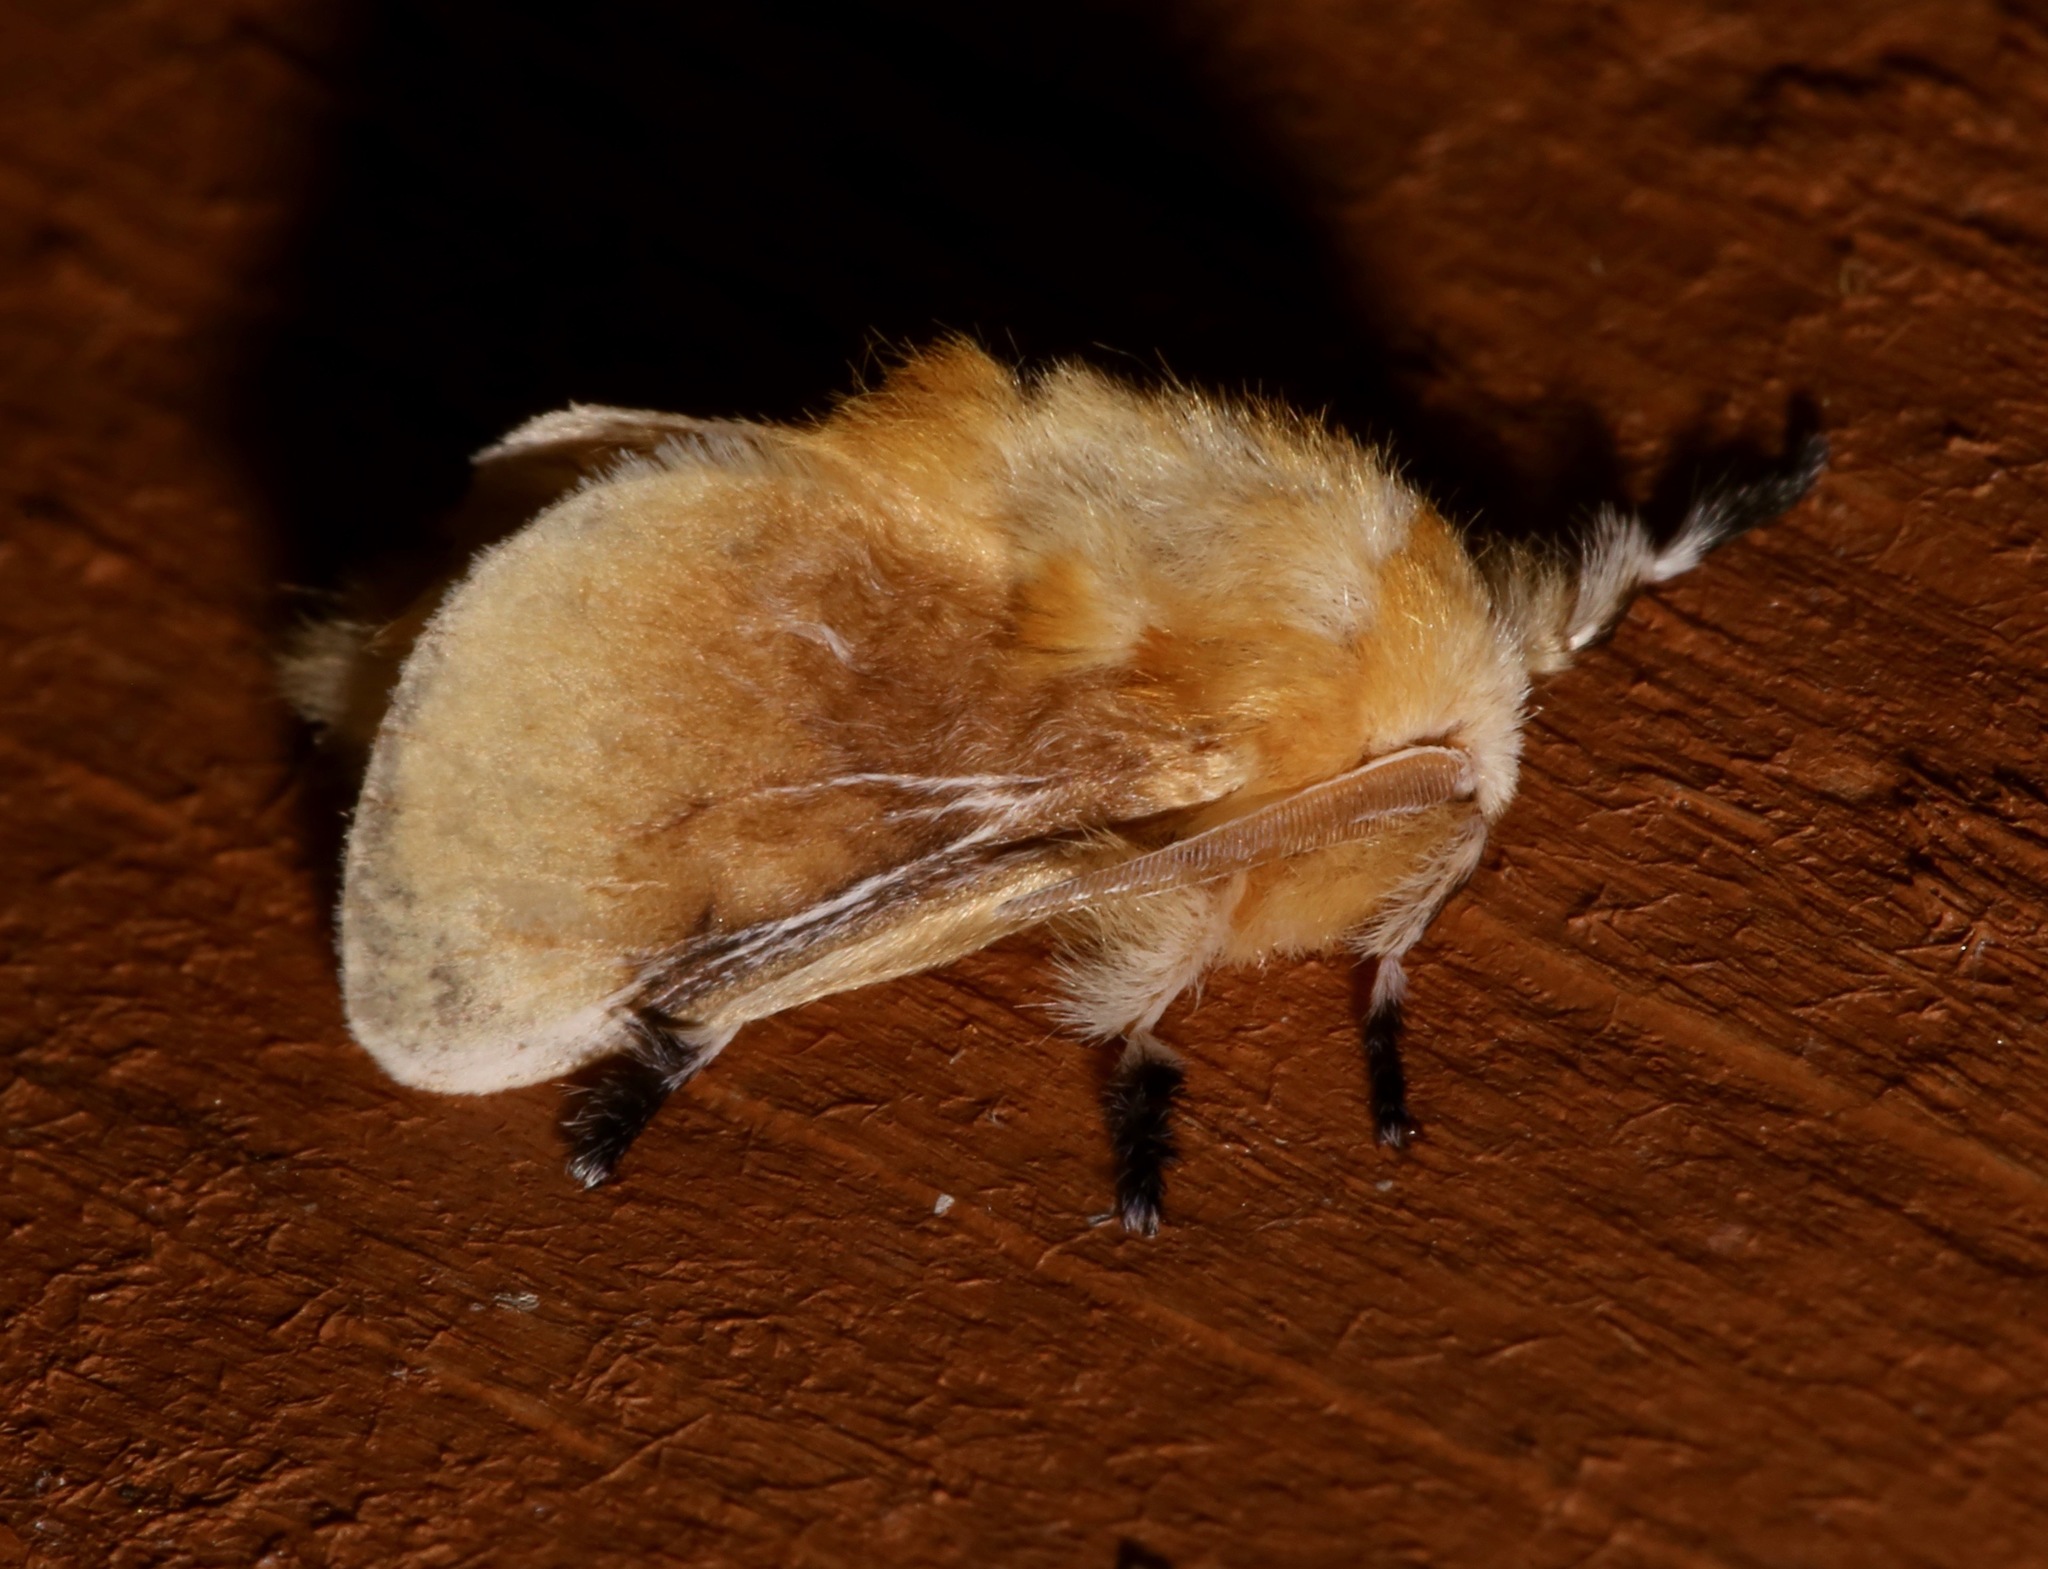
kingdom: Animalia
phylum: Arthropoda
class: Insecta
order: Lepidoptera
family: Megalopygidae
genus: Megalopyge
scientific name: Megalopyge opercularis
